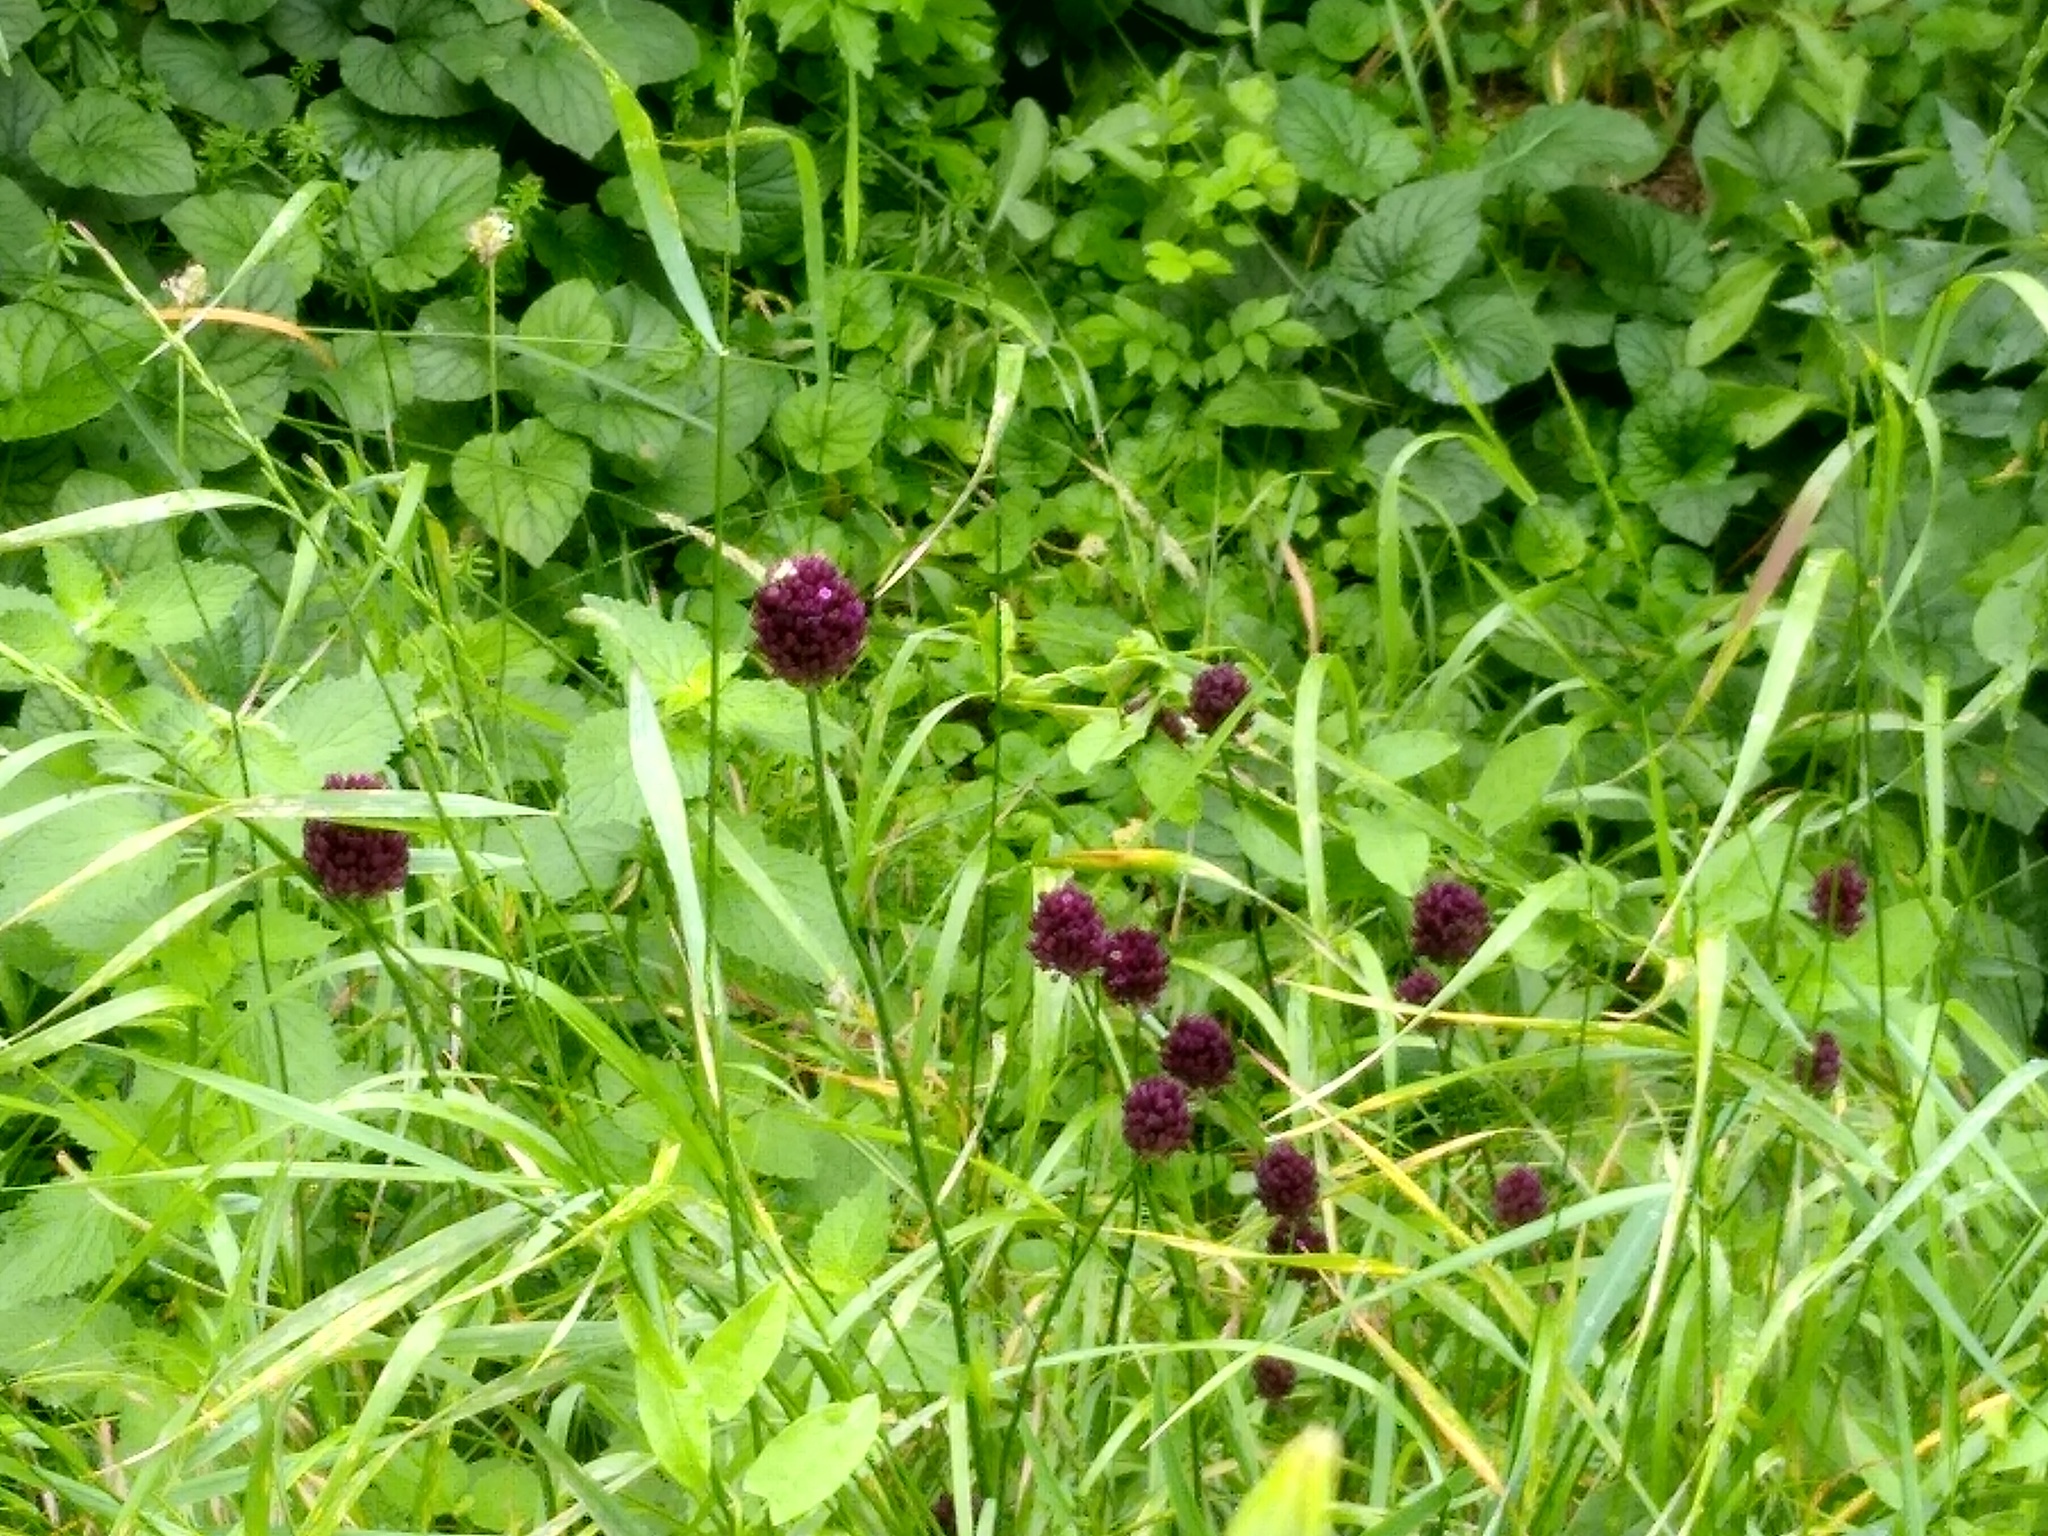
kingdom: Plantae
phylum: Tracheophyta
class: Liliopsida
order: Asparagales
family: Amaryllidaceae
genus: Allium
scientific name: Allium rotundum
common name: Sand leek
